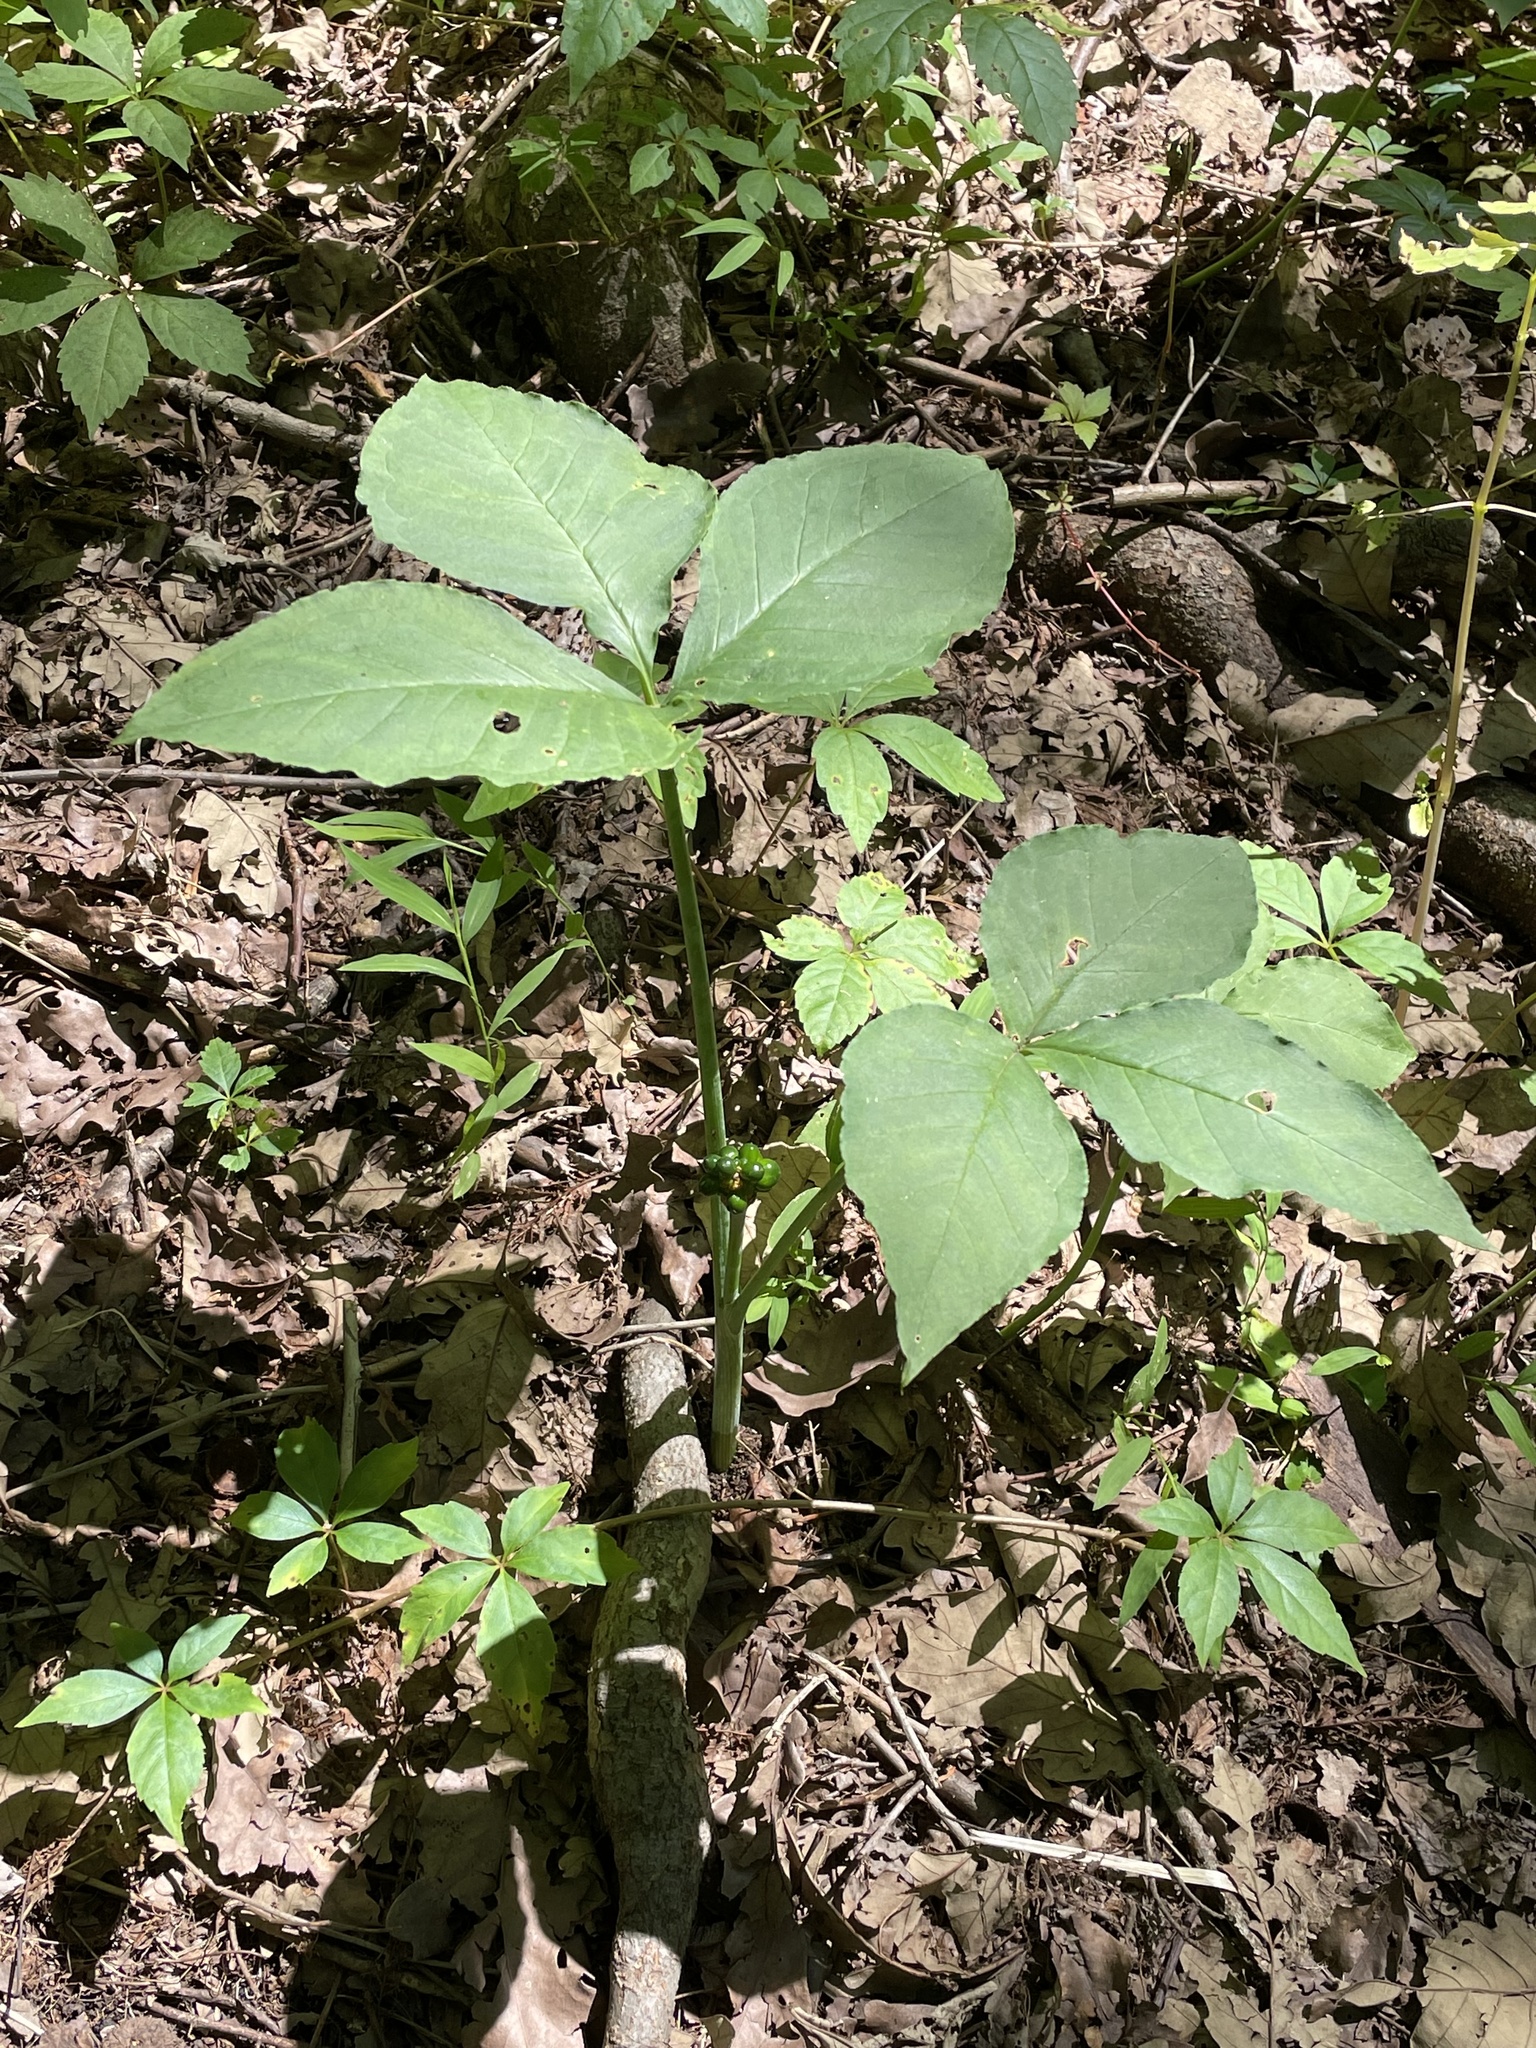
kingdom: Plantae
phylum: Tracheophyta
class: Liliopsida
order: Alismatales
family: Araceae
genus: Arisaema
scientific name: Arisaema triphyllum
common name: Jack-in-the-pulpit
